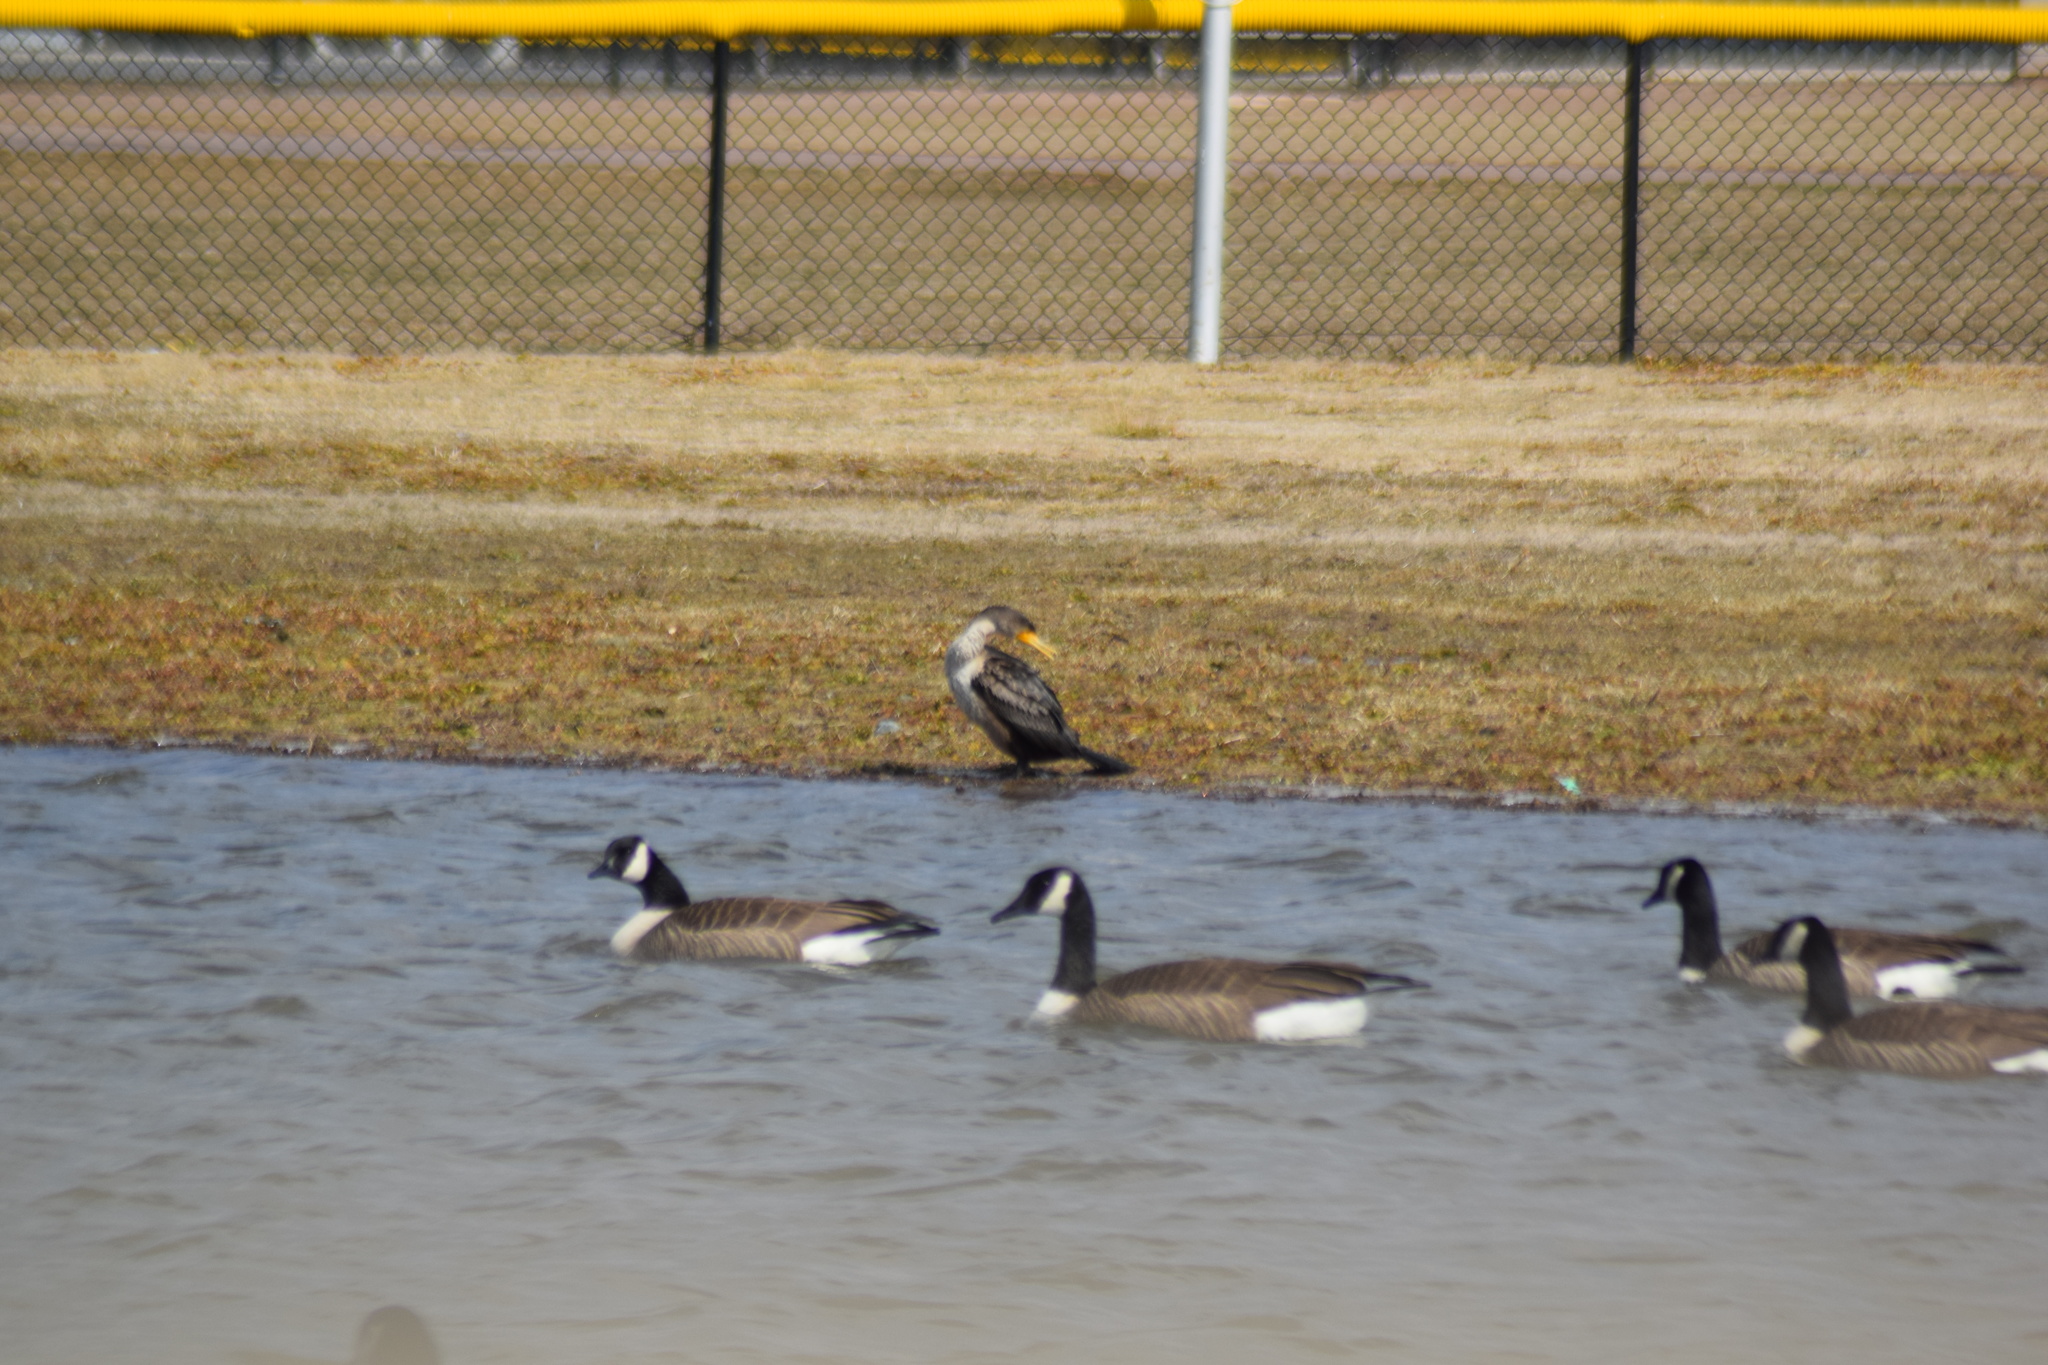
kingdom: Animalia
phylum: Chordata
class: Aves
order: Suliformes
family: Phalacrocoracidae
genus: Phalacrocorax
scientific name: Phalacrocorax auritus
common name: Double-crested cormorant
